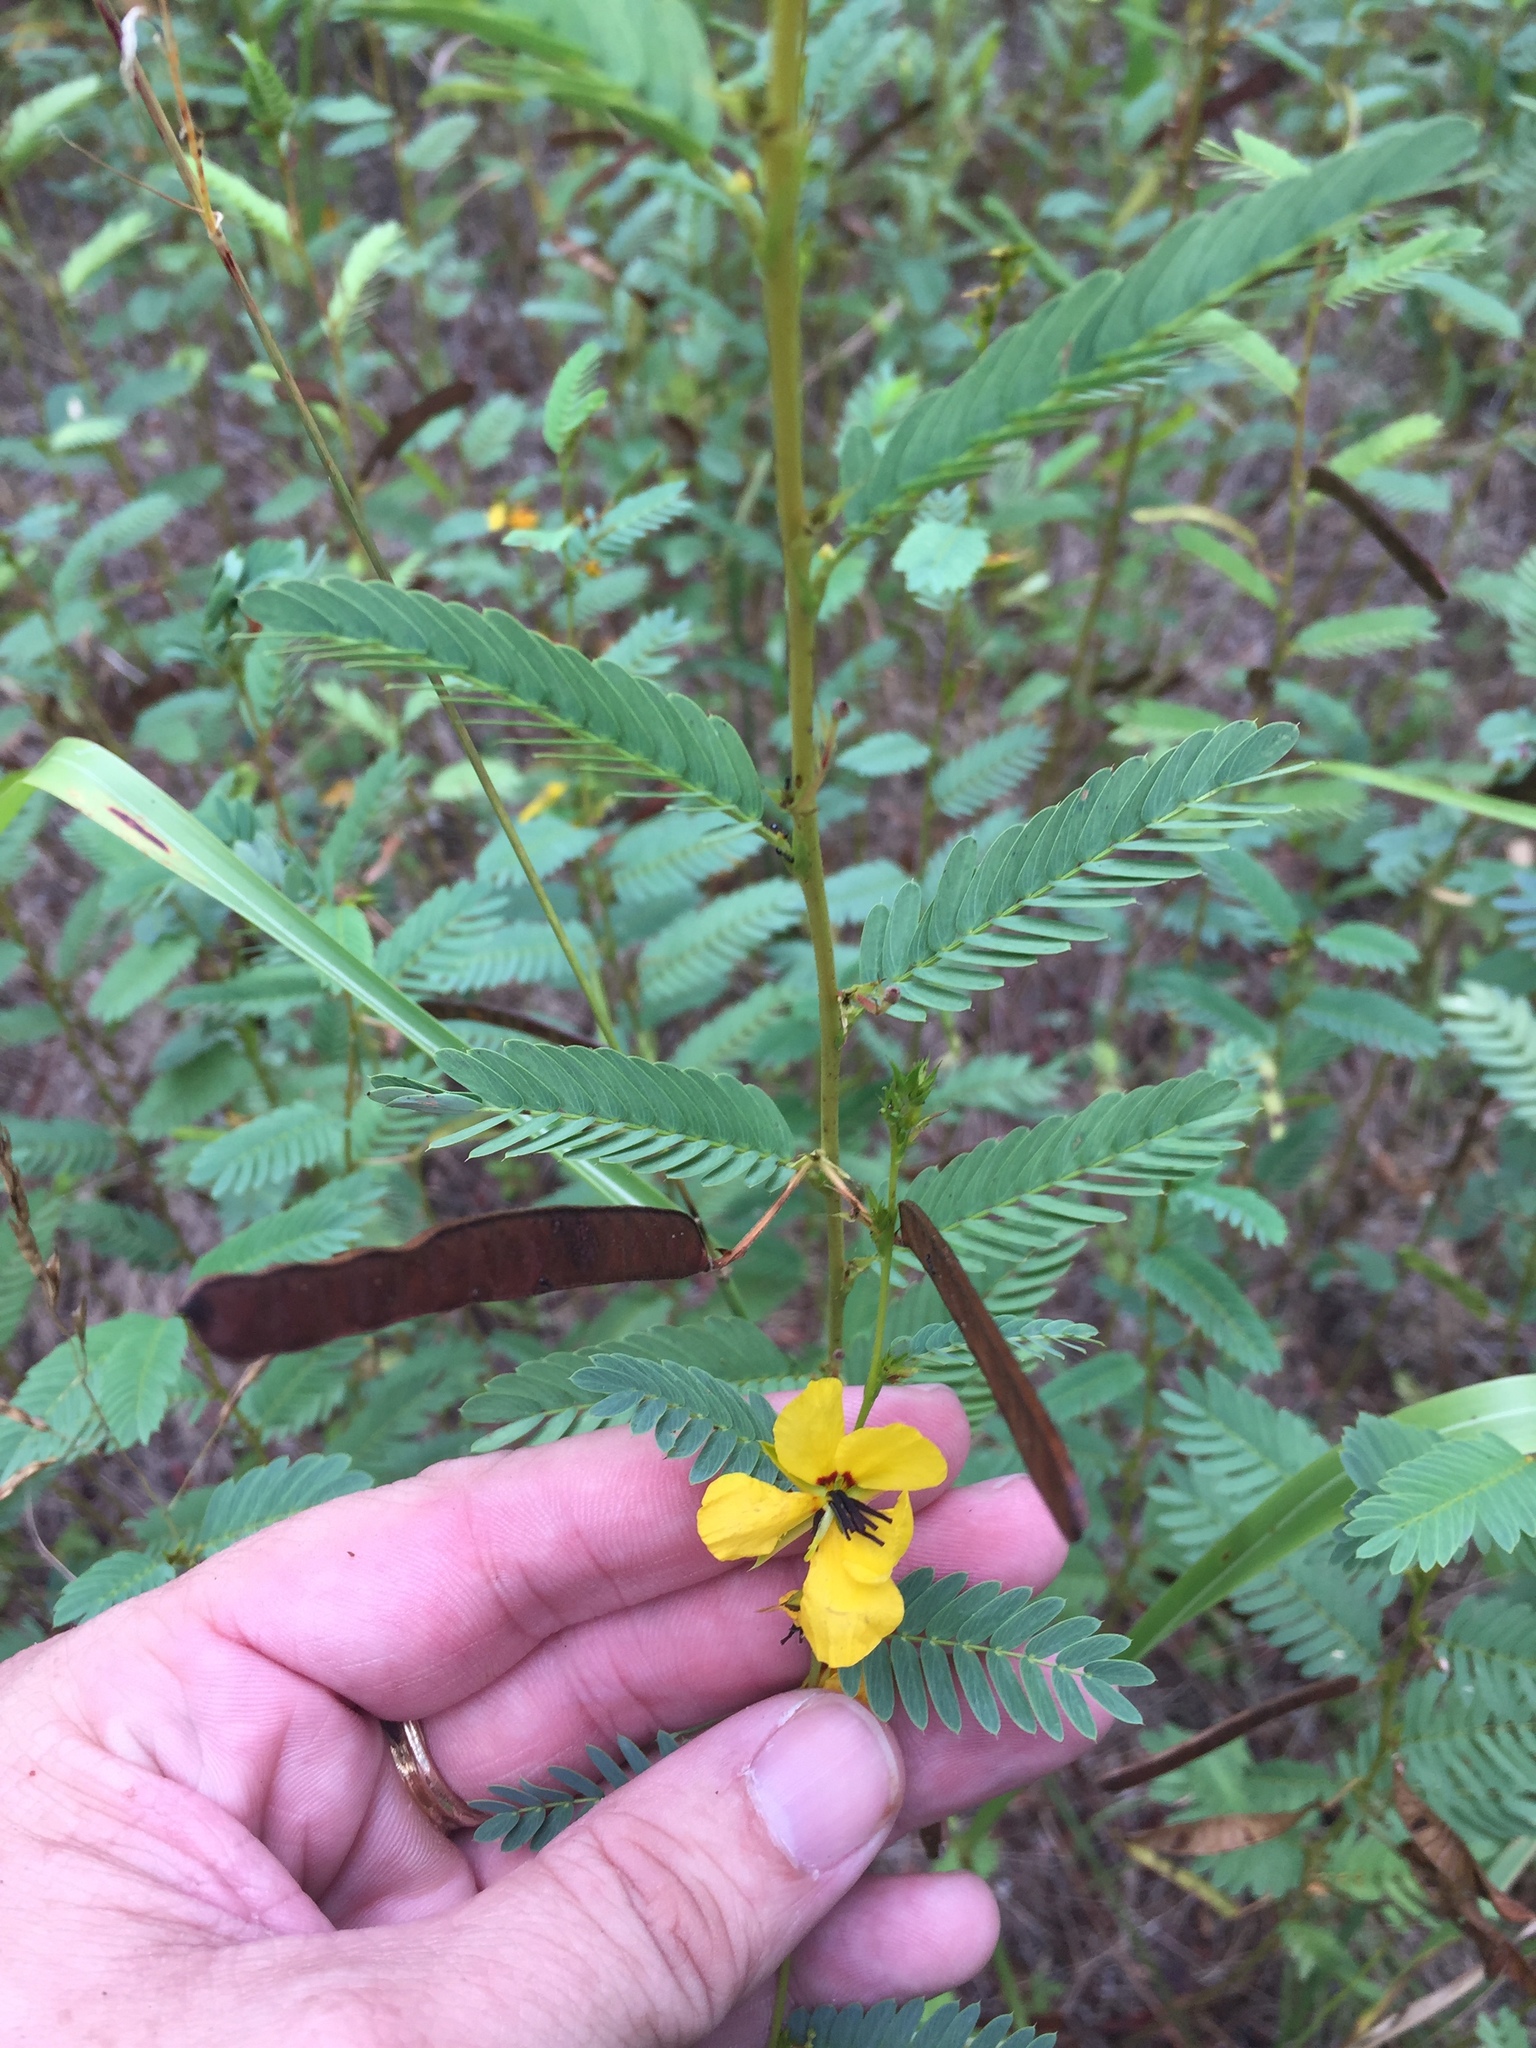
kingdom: Plantae
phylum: Tracheophyta
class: Magnoliopsida
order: Fabales
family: Fabaceae
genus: Chamaecrista
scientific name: Chamaecrista fasciculata
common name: Golden cassia
